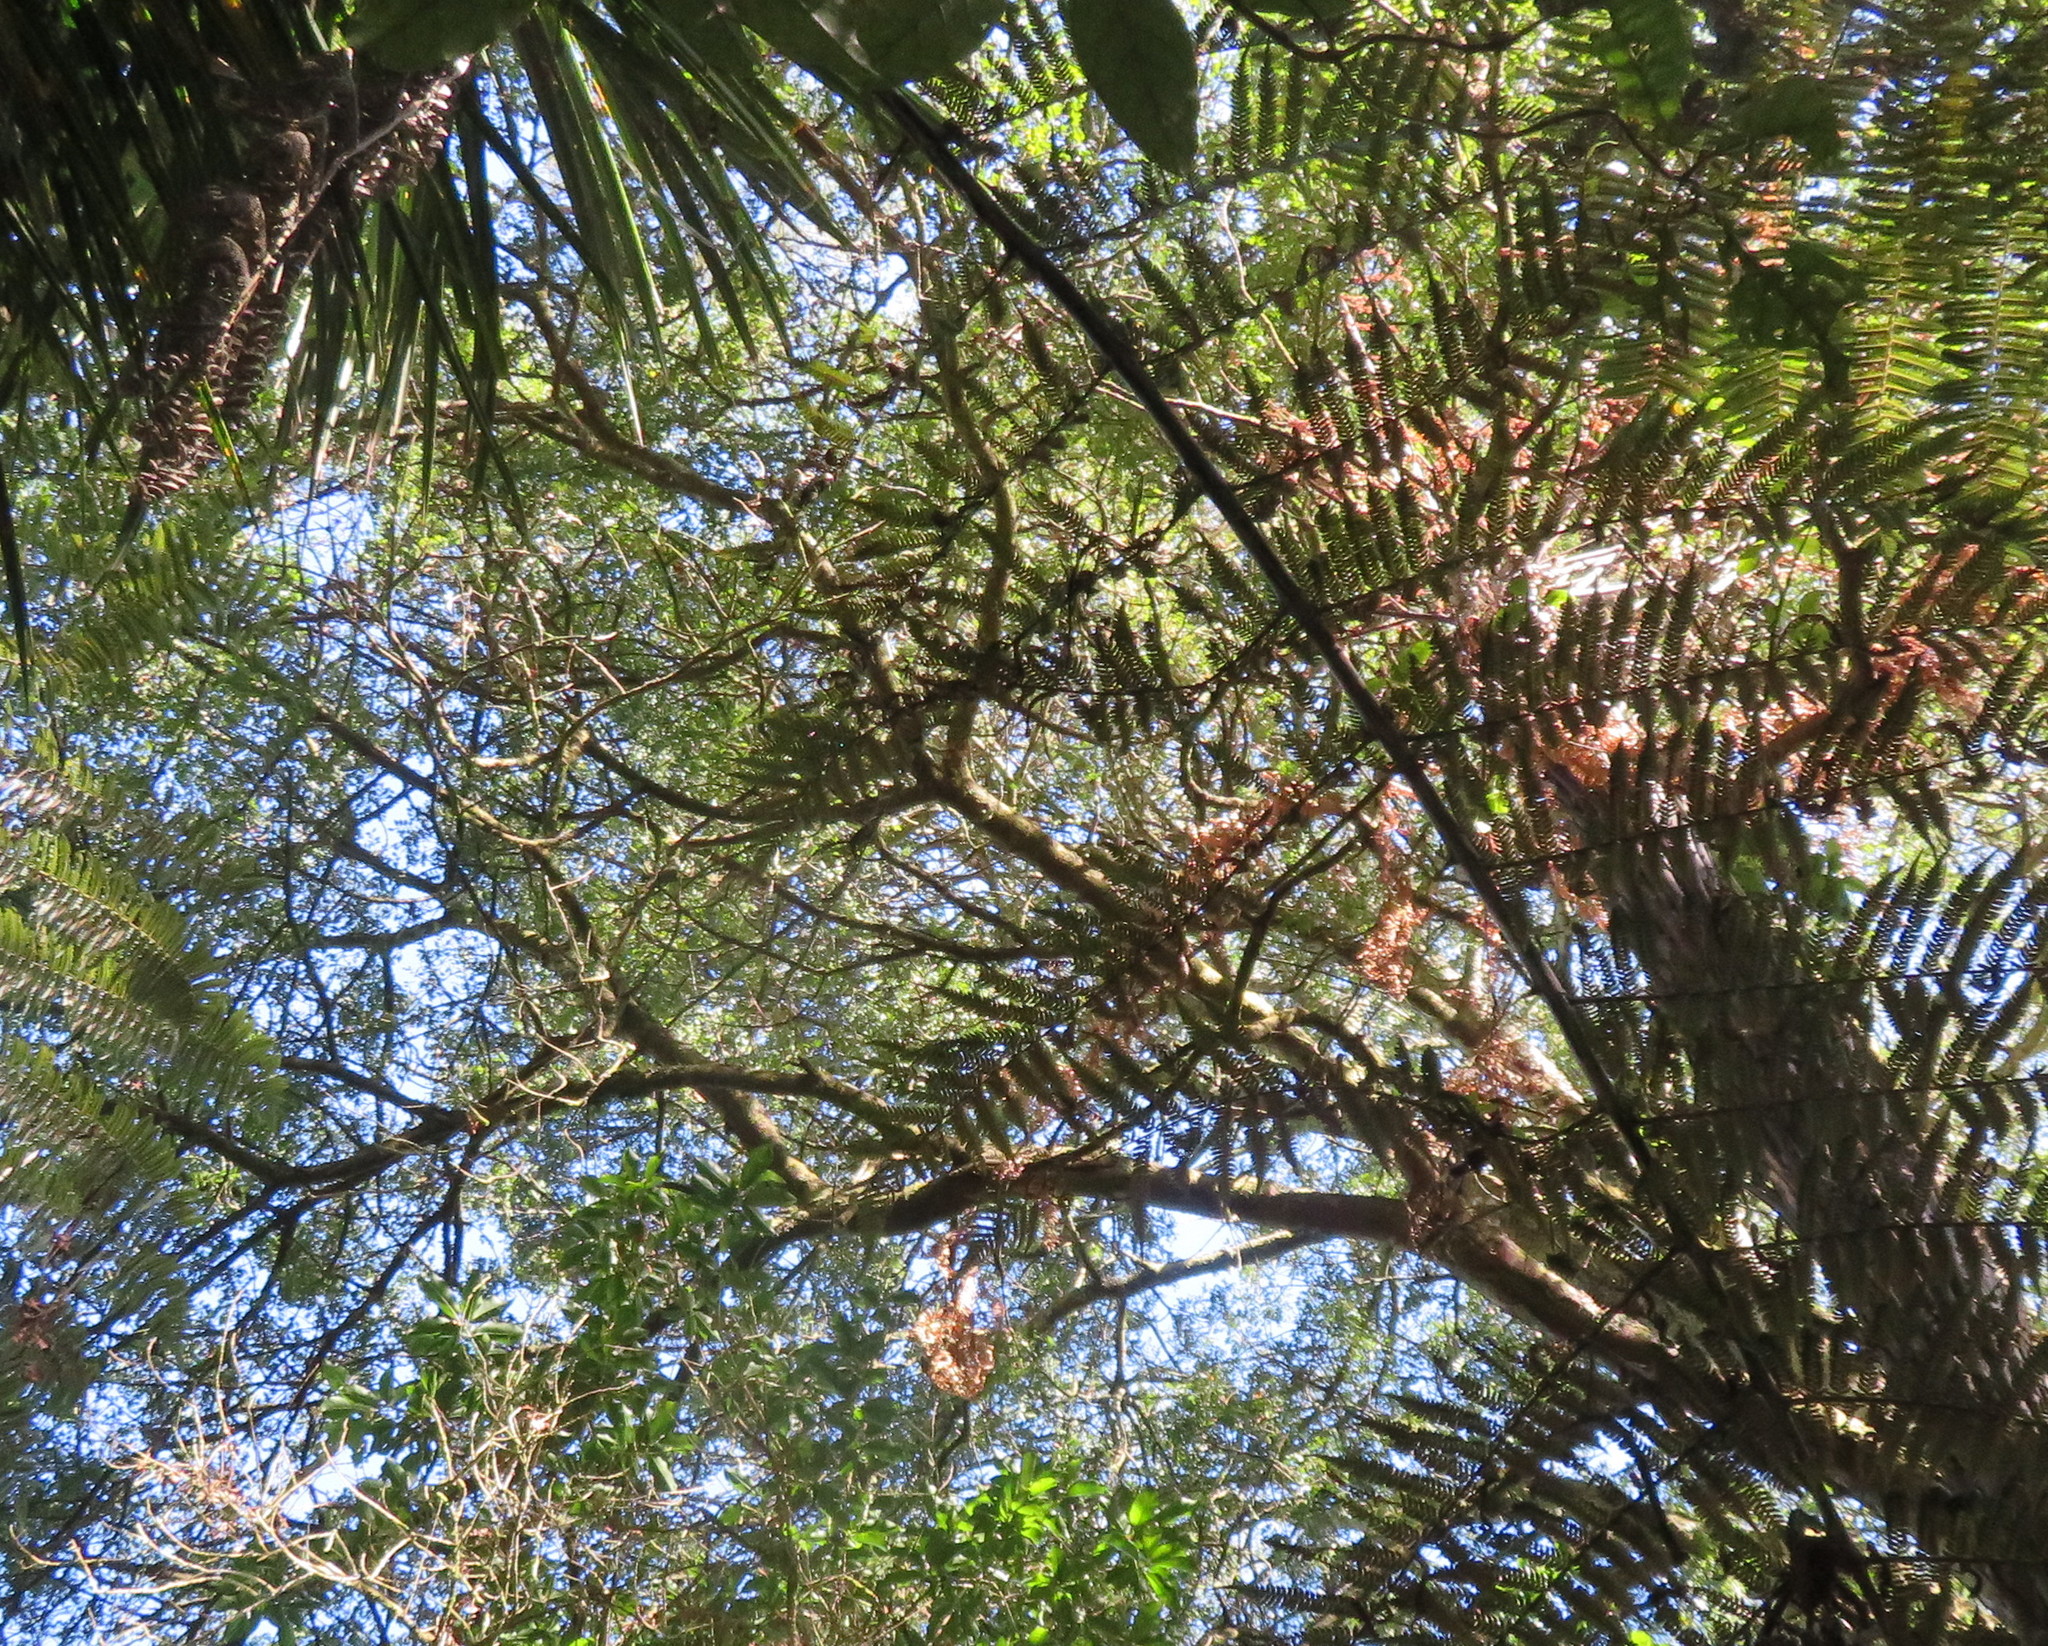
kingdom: Plantae
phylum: Tracheophyta
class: Pinopsida
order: Pinales
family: Phyllocladaceae
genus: Phyllocladus
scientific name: Phyllocladus trichomanoides
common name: Celery pine
